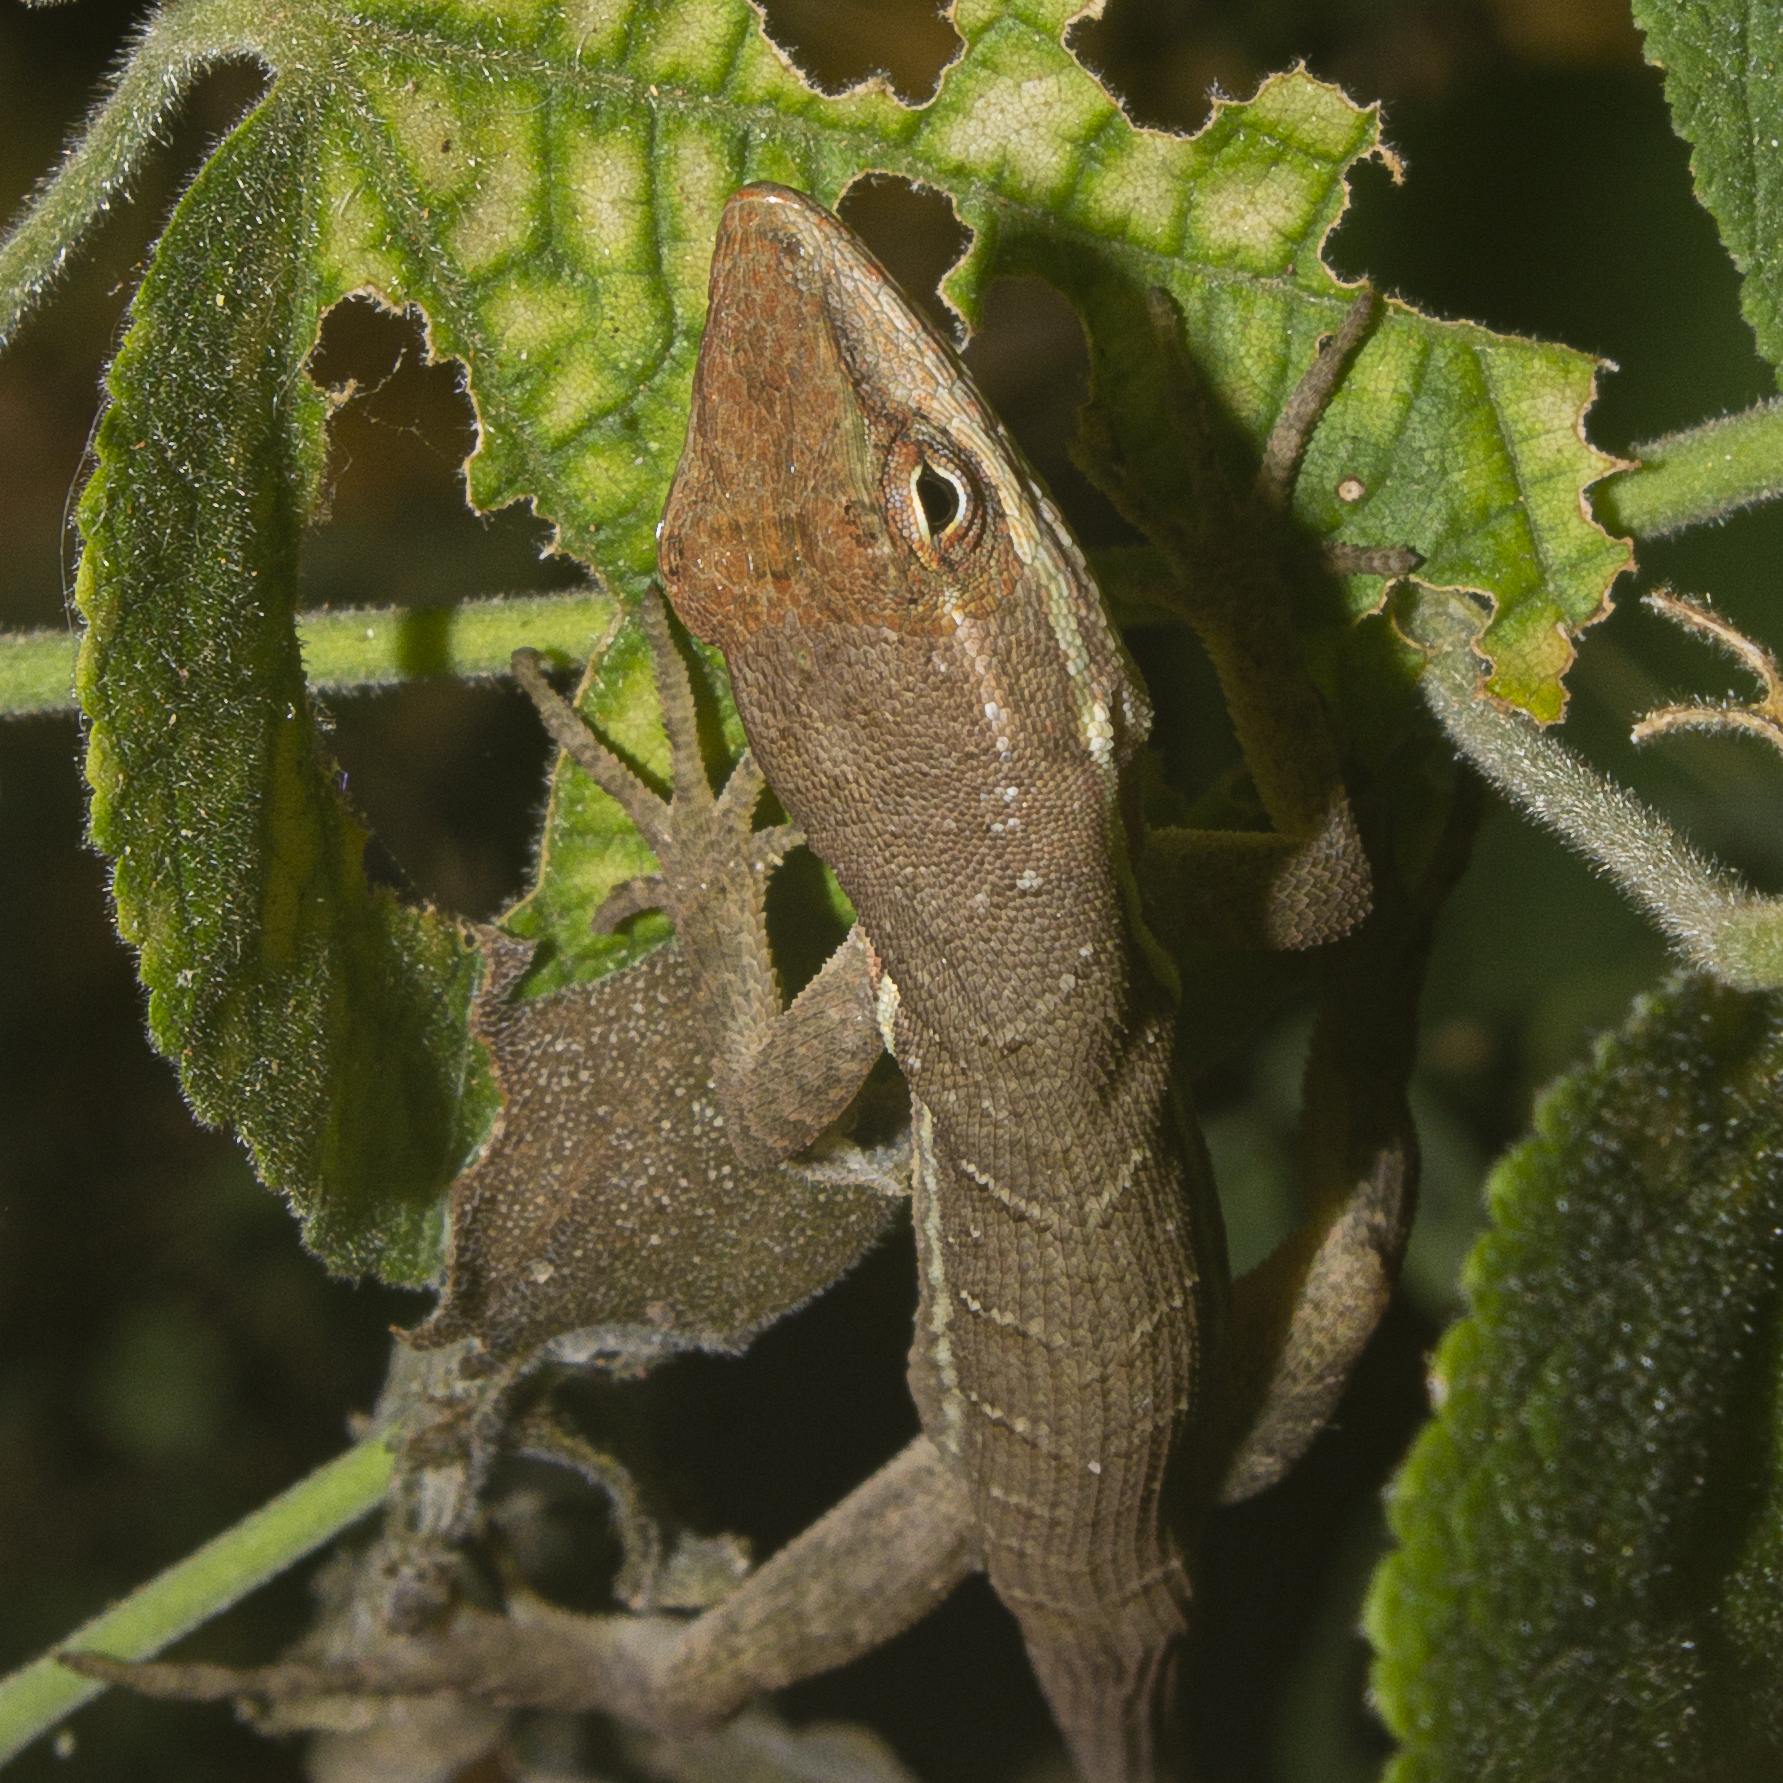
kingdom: Animalia
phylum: Chordata
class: Squamata
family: Dactyloidae
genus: Anolis
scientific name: Anolis auratus
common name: Grass anole
